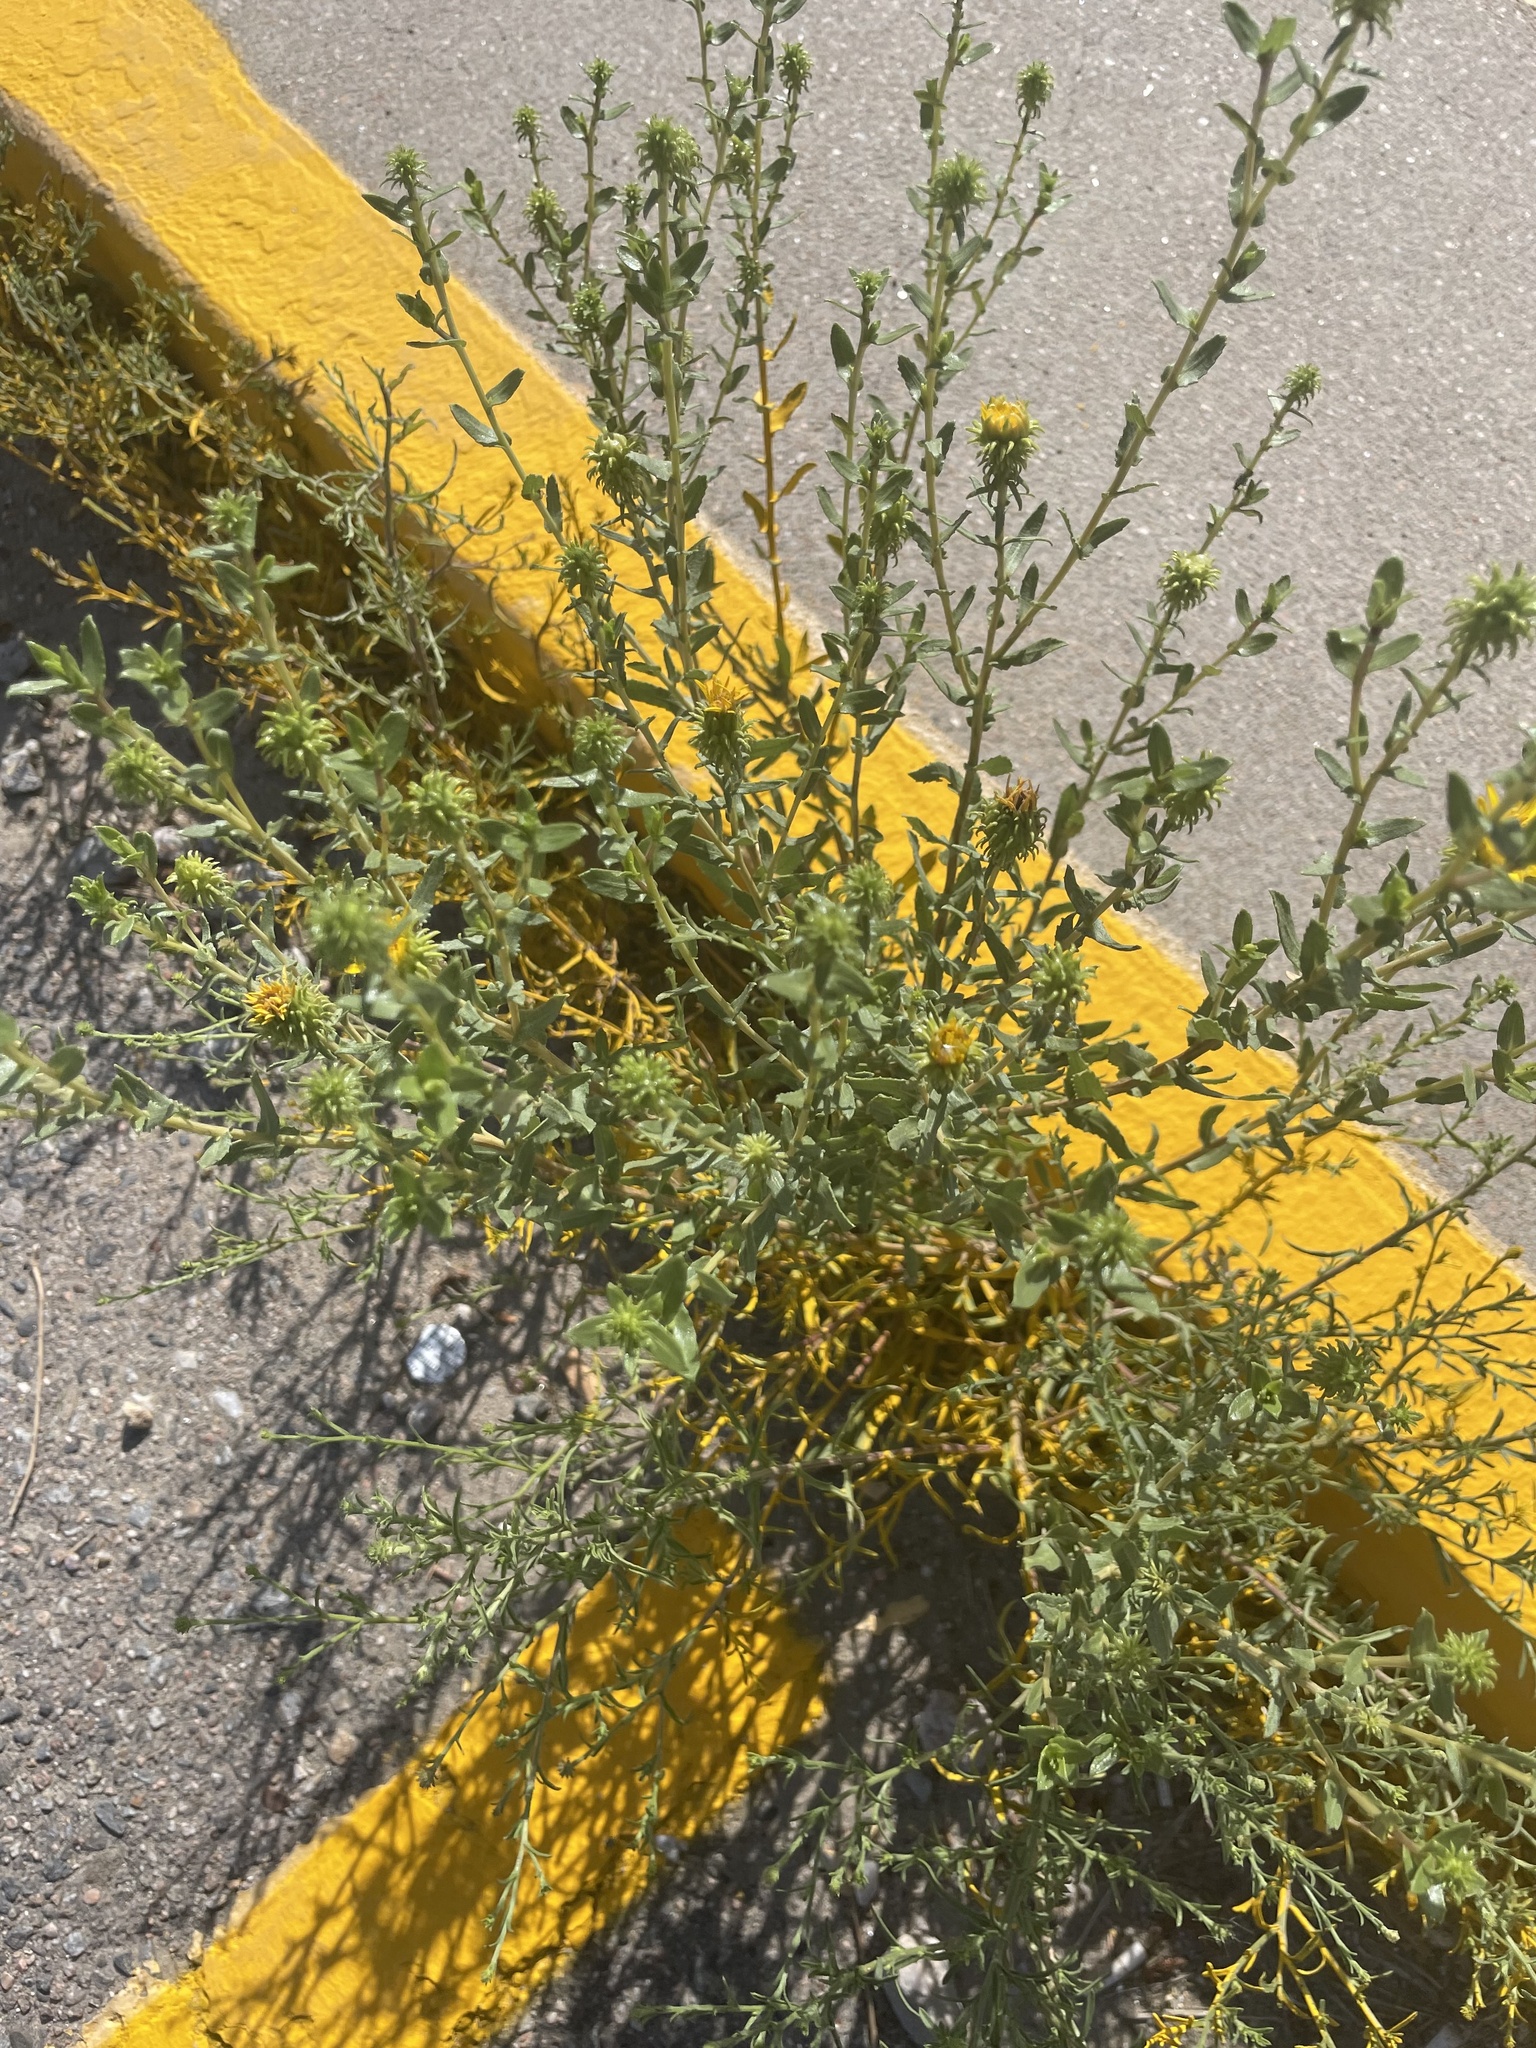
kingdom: Plantae
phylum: Tracheophyta
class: Magnoliopsida
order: Asterales
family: Asteraceae
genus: Grindelia
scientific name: Grindelia squarrosa
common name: Curly-cup gumweed
